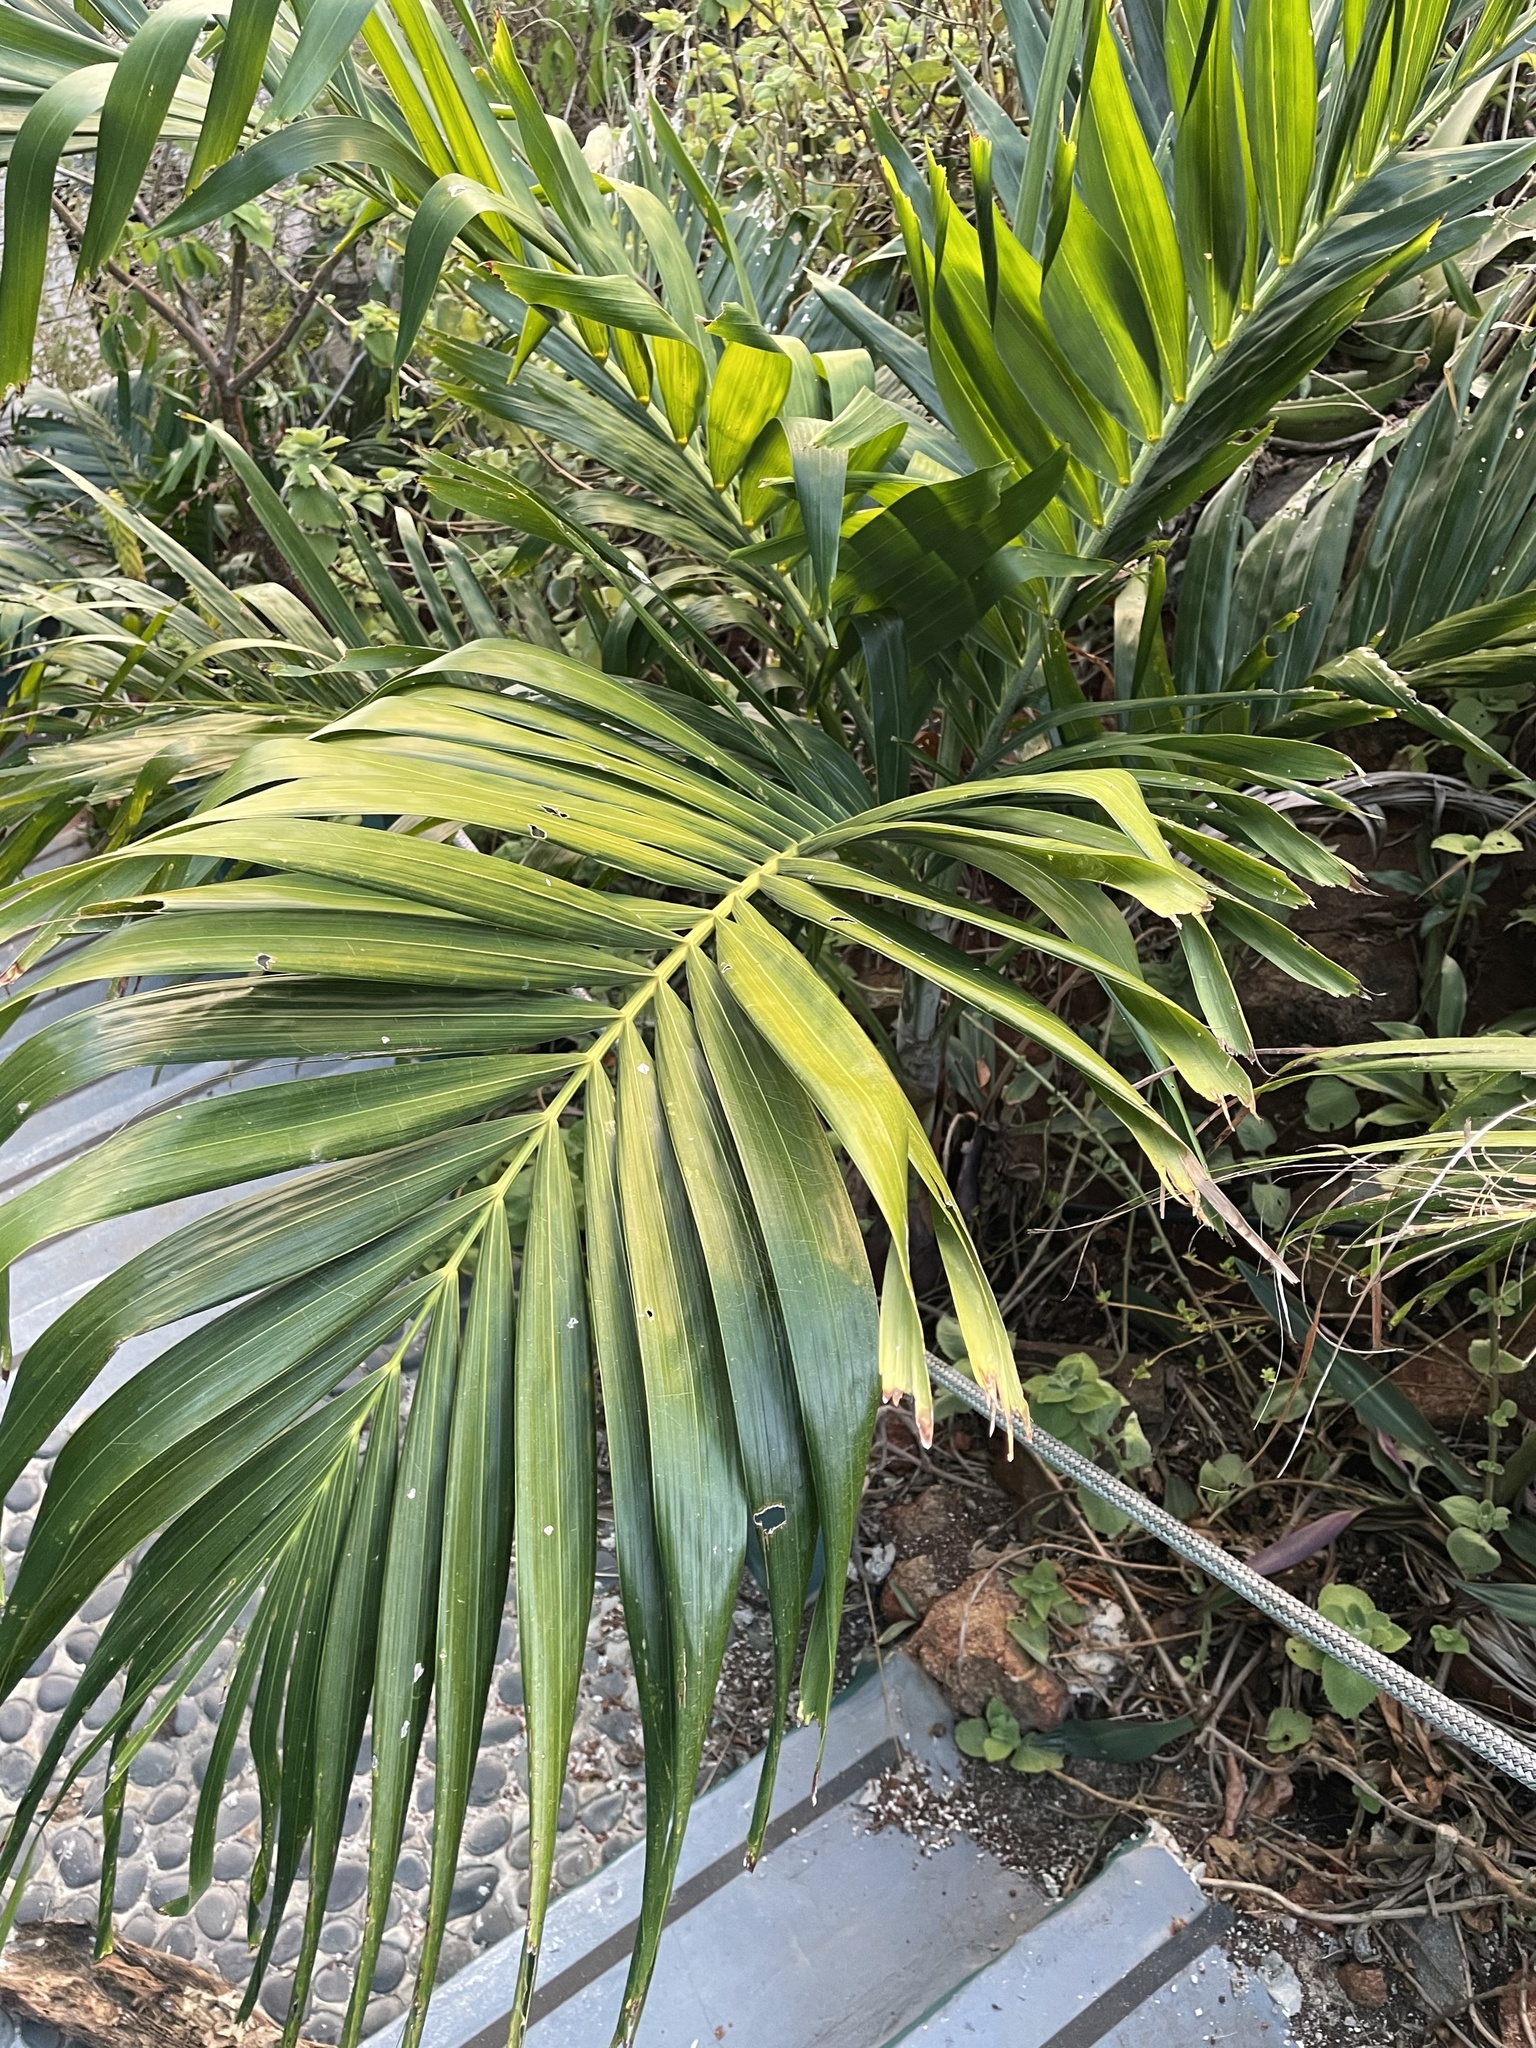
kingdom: Plantae
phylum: Tracheophyta
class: Liliopsida
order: Arecales
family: Arecaceae
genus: Adonidia
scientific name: Adonidia merrillii
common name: Manila palm
